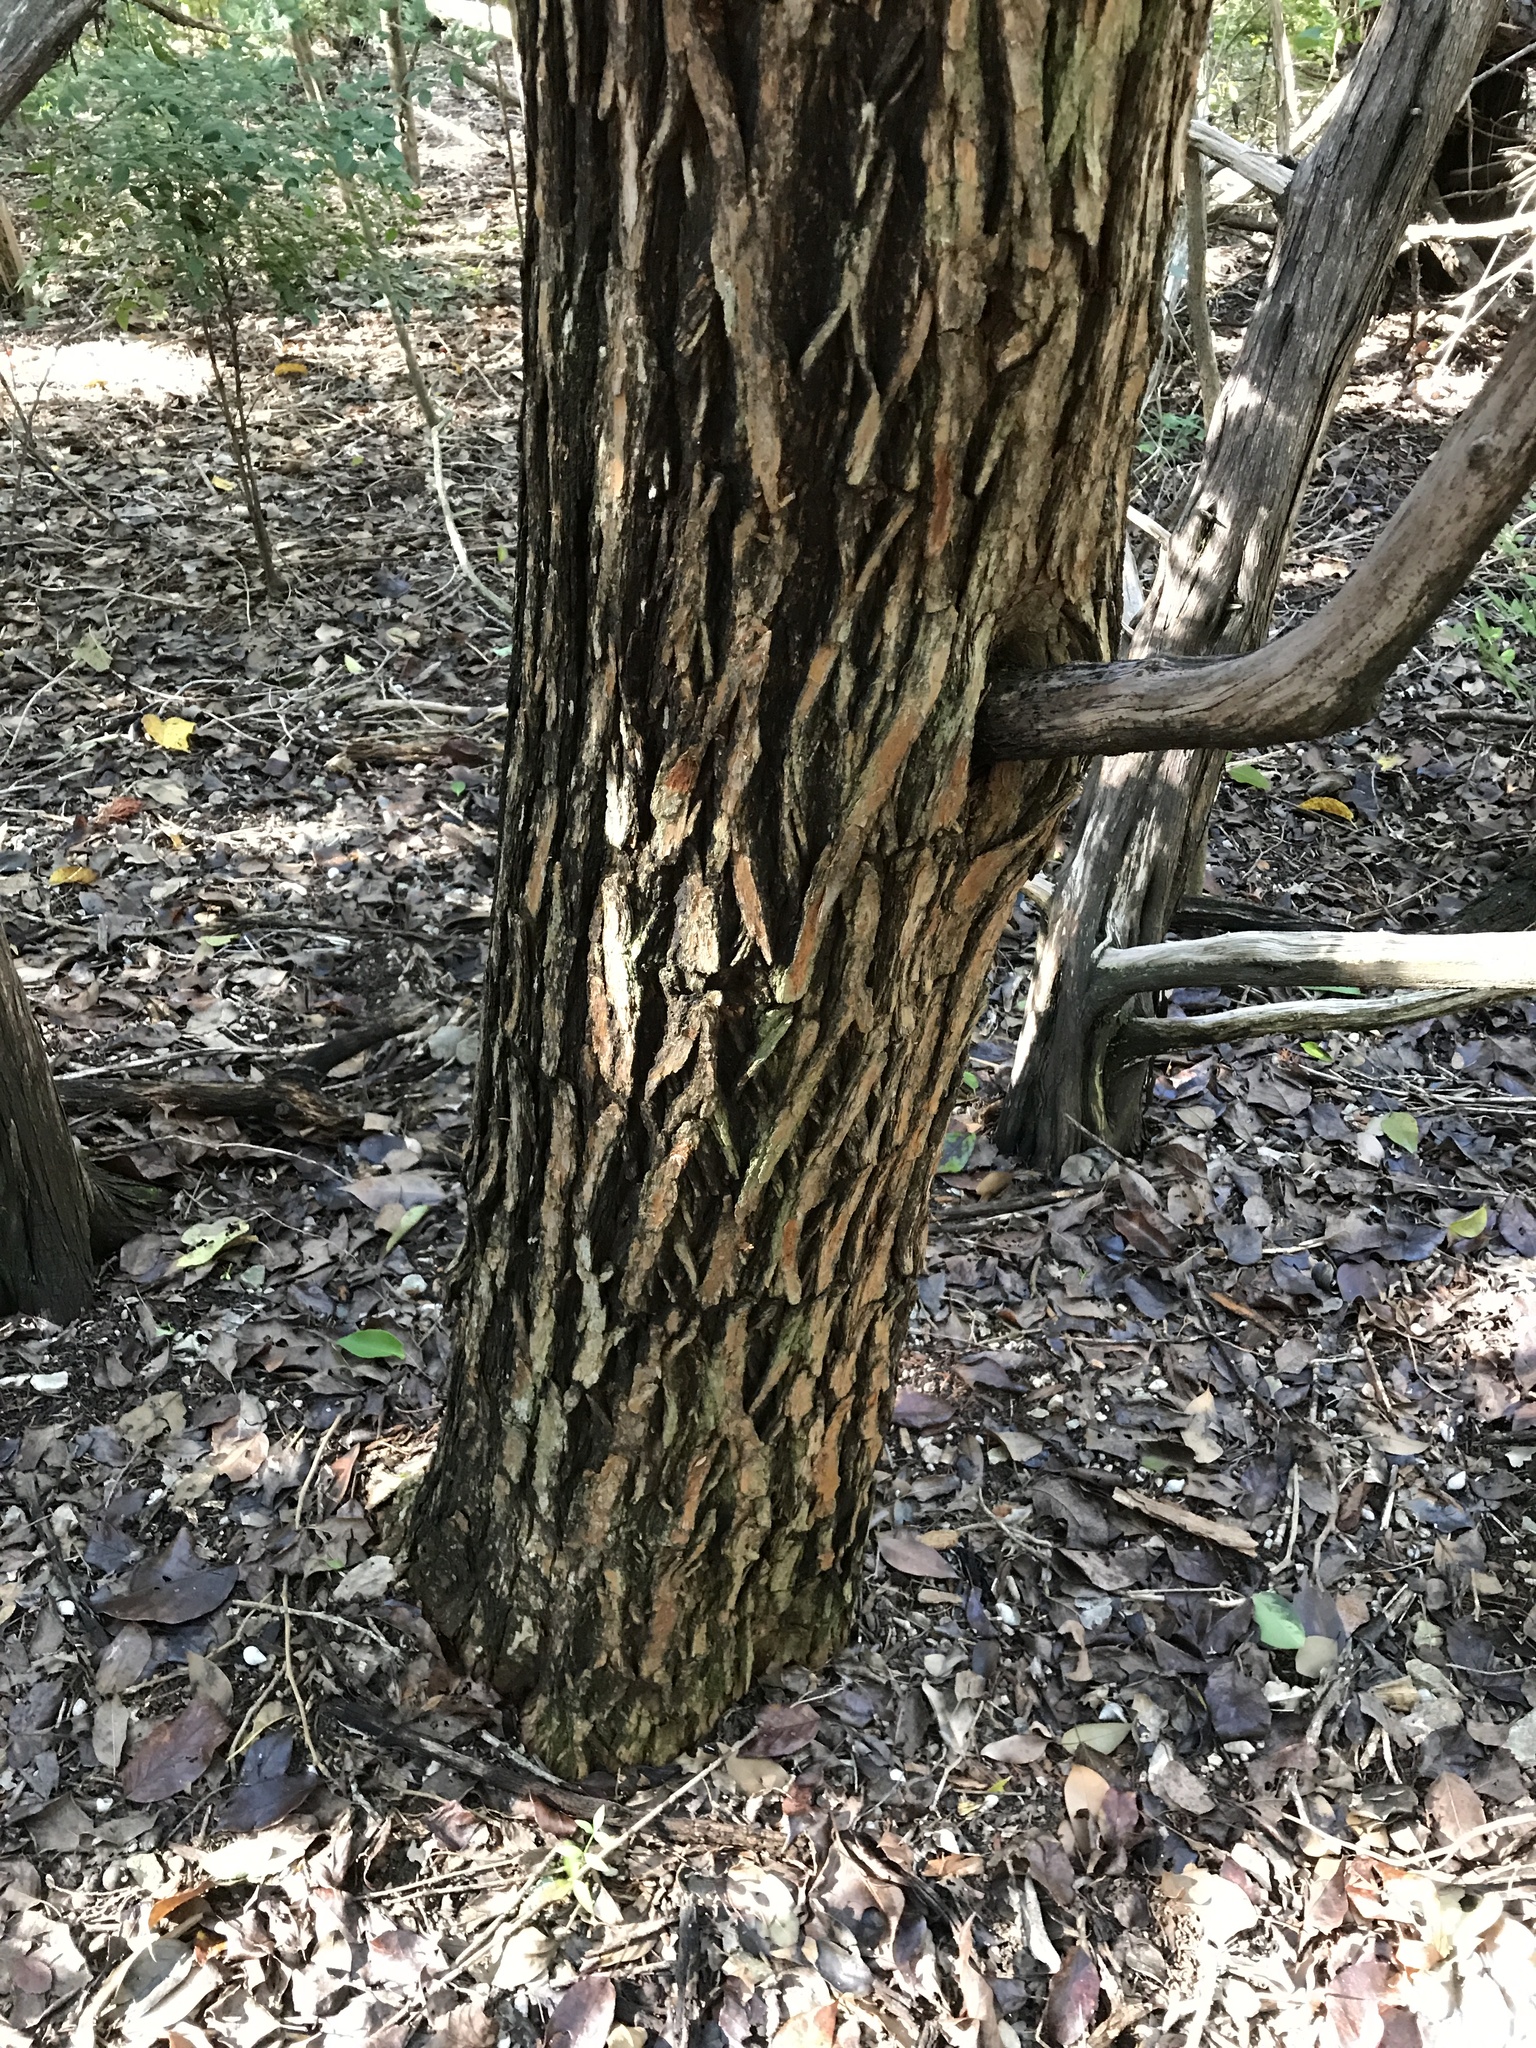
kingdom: Plantae
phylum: Tracheophyta
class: Magnoliopsida
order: Rosales
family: Moraceae
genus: Maclura
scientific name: Maclura pomifera
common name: Osage-orange
